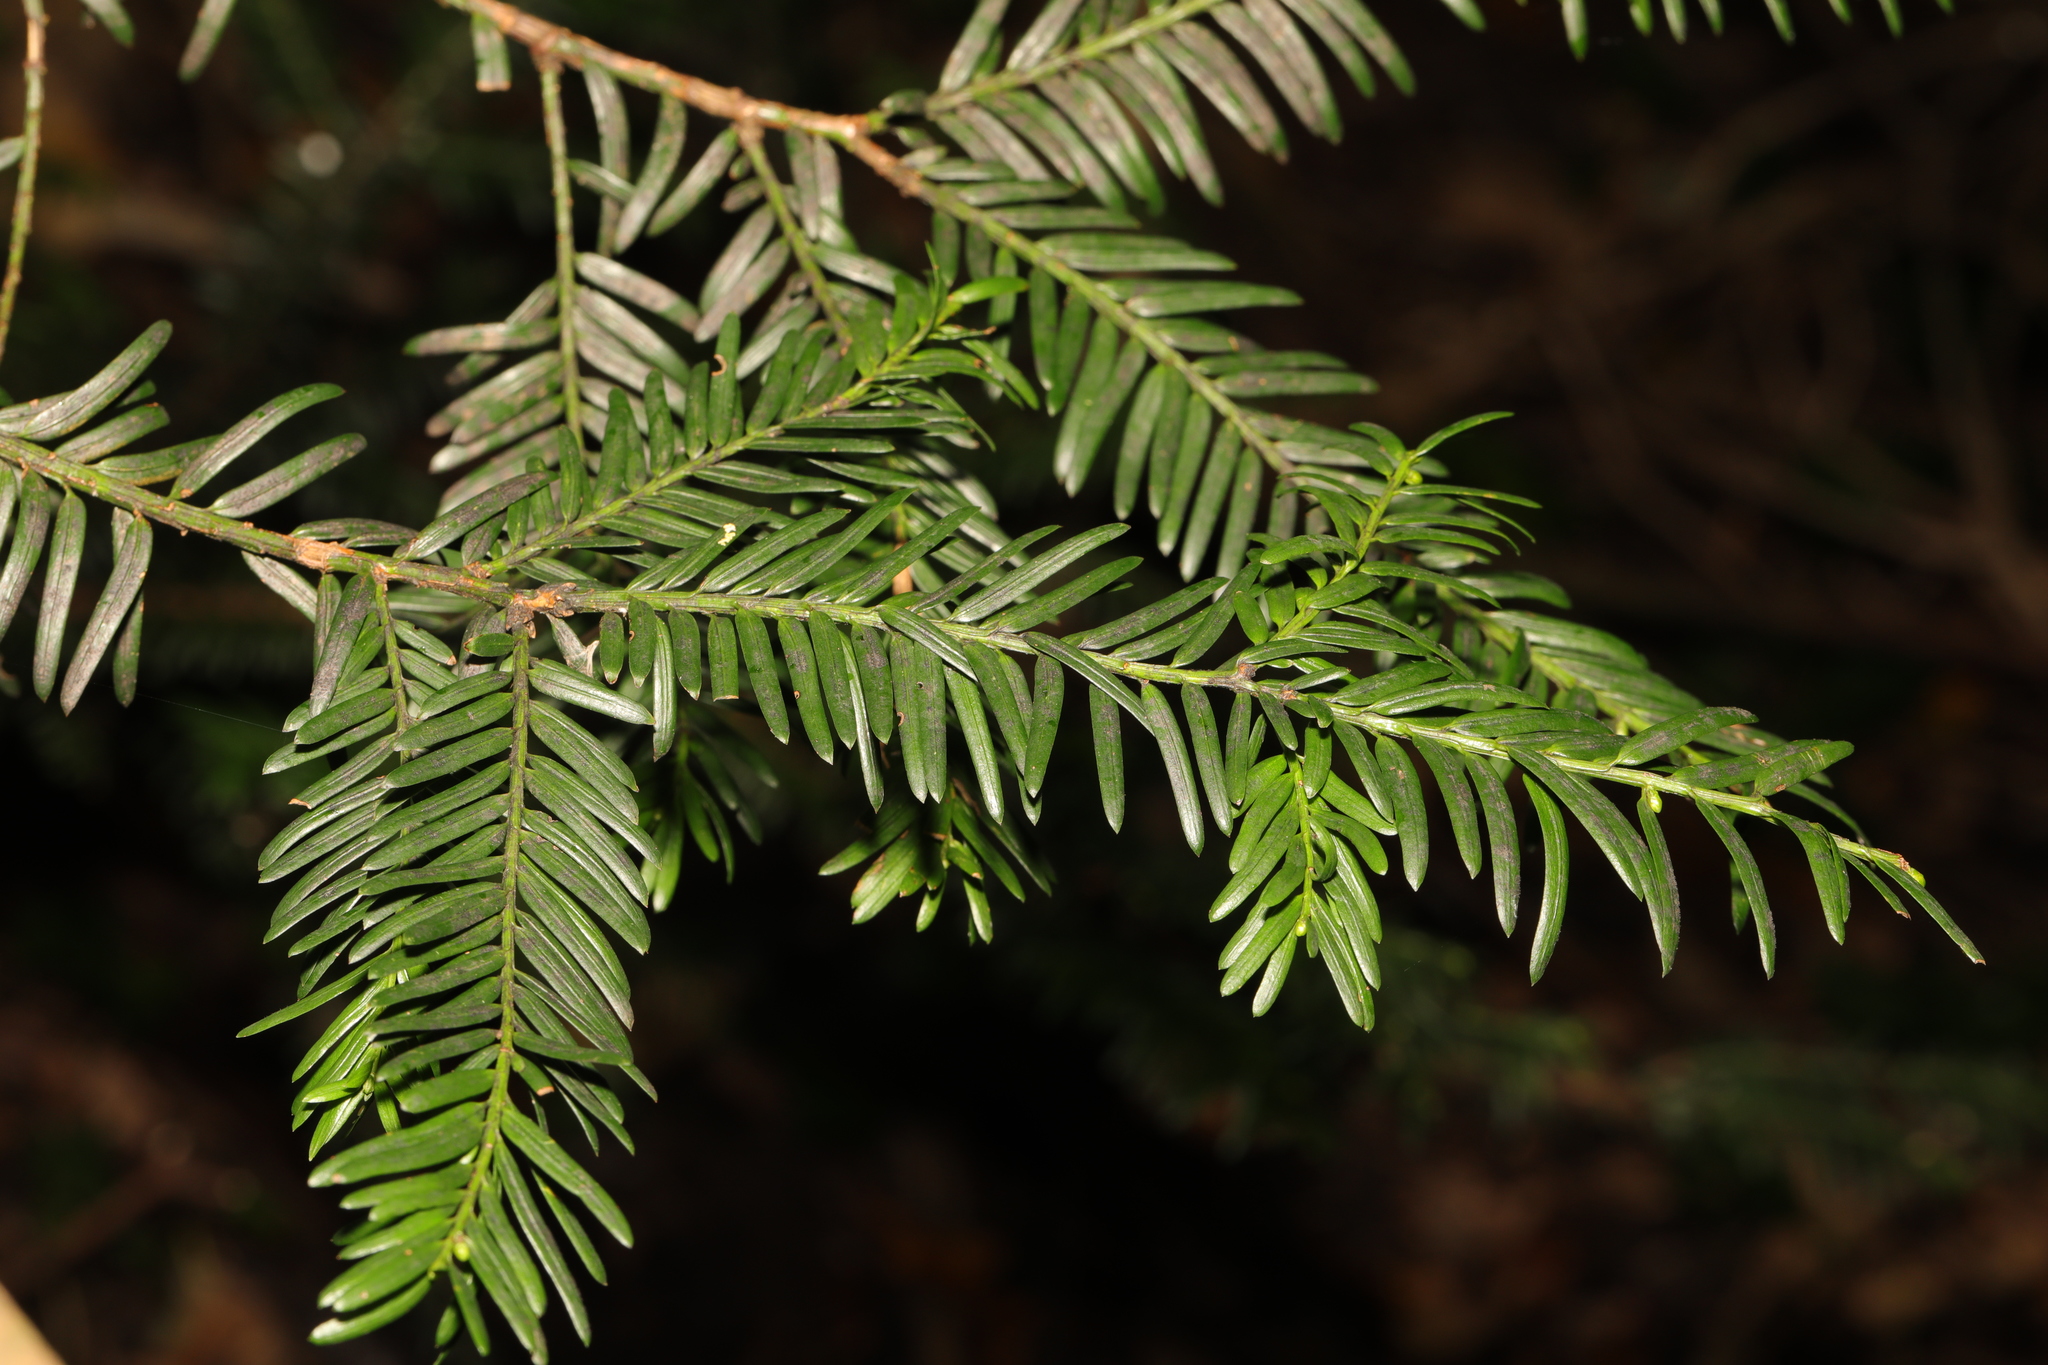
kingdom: Plantae
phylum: Tracheophyta
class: Pinopsida
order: Pinales
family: Taxaceae
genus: Taxus
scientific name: Taxus baccata
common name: Yew
